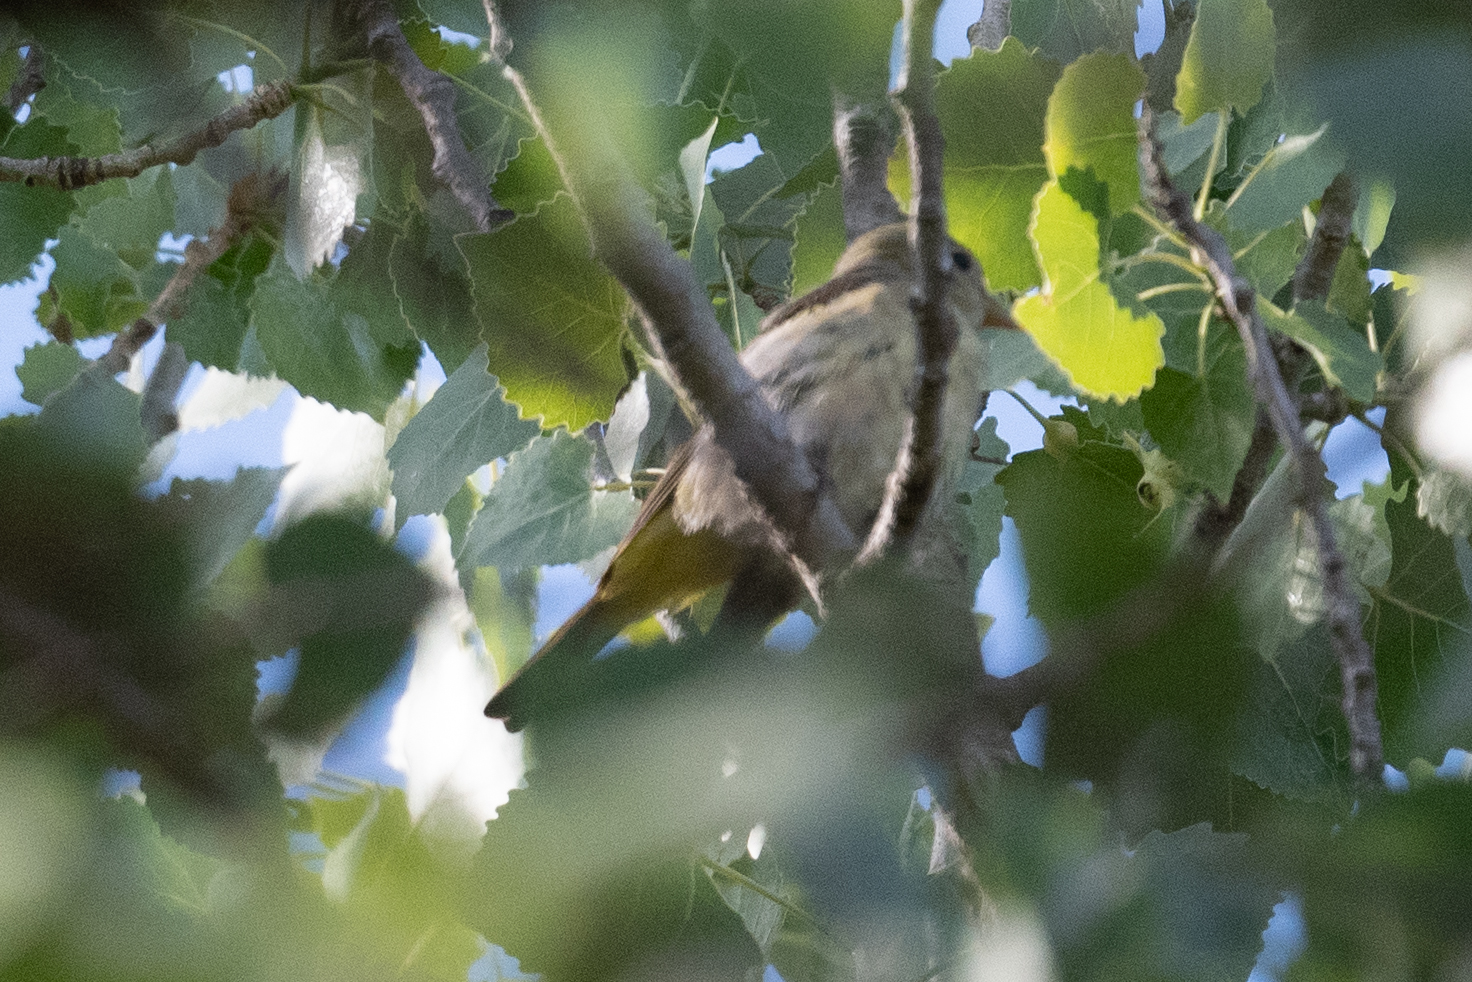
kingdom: Animalia
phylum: Chordata
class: Aves
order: Passeriformes
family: Cardinalidae
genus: Piranga
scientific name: Piranga ludoviciana
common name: Western tanager
